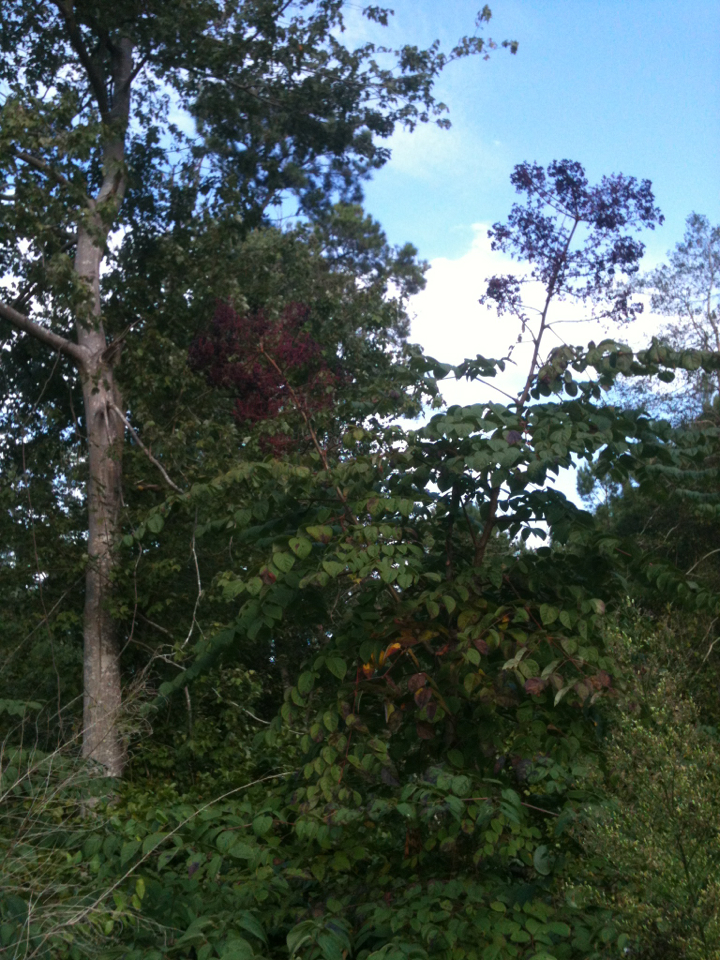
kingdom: Plantae
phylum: Tracheophyta
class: Magnoliopsida
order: Apiales
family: Araliaceae
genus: Aralia
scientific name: Aralia spinosa
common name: Hercules'-club
